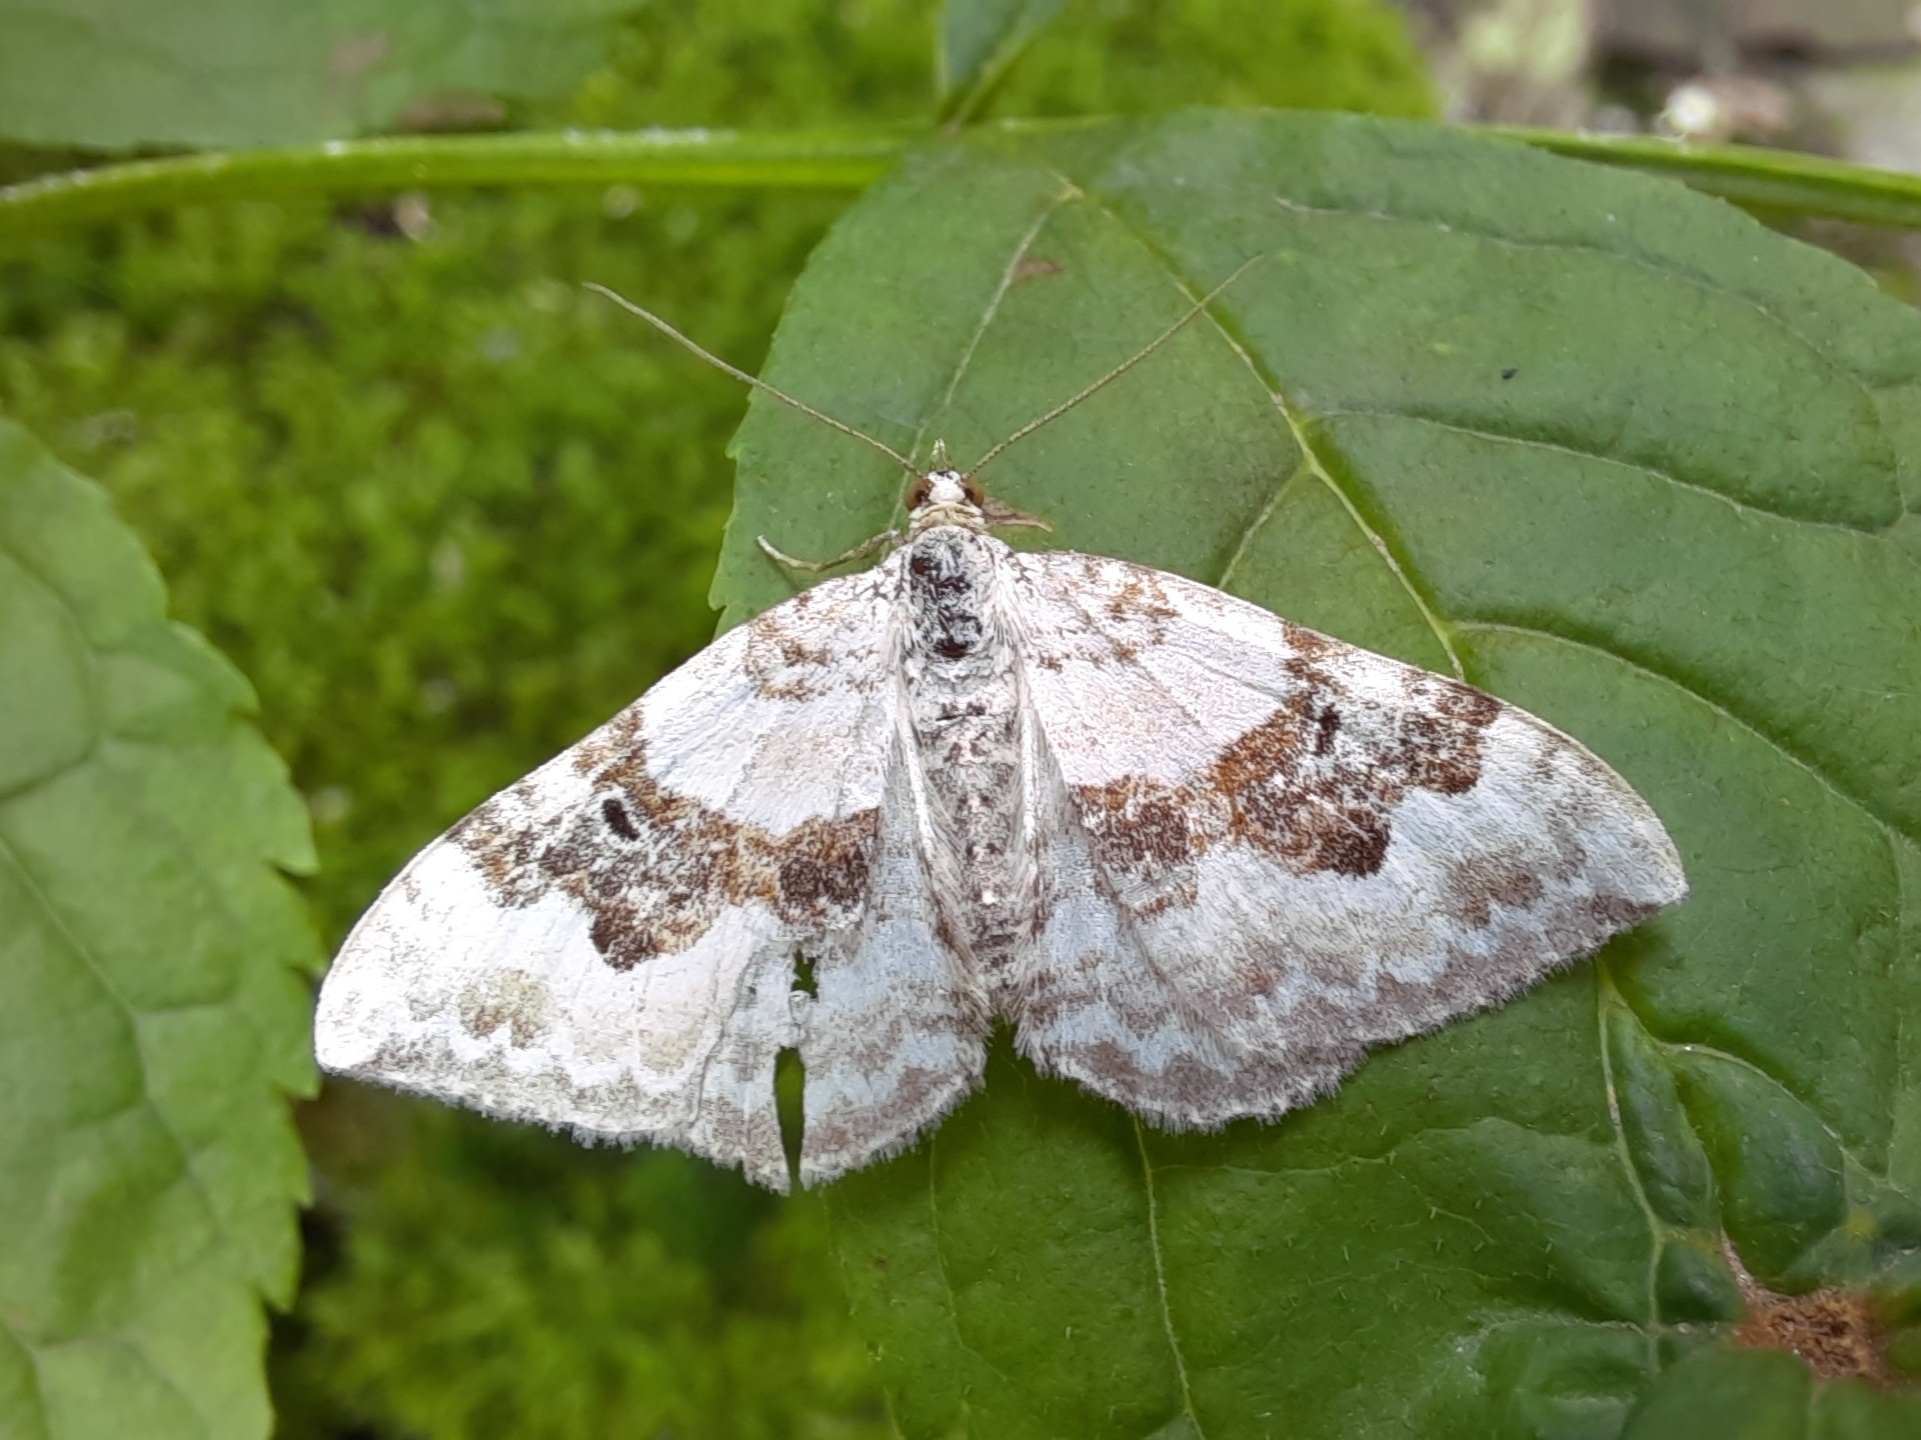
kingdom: Animalia
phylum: Arthropoda
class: Insecta
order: Lepidoptera
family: Geometridae
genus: Xanthorhoe
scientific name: Xanthorhoe montanata
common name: Silver-ground carpet
